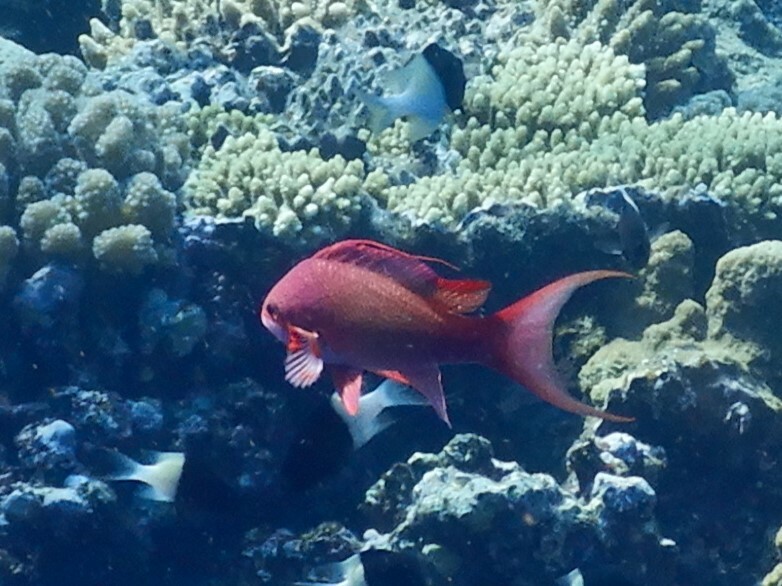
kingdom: Animalia
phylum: Chordata
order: Perciformes
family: Serranidae
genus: Pseudanthias
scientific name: Pseudanthias squamipinnis
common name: Scalefin anthias
